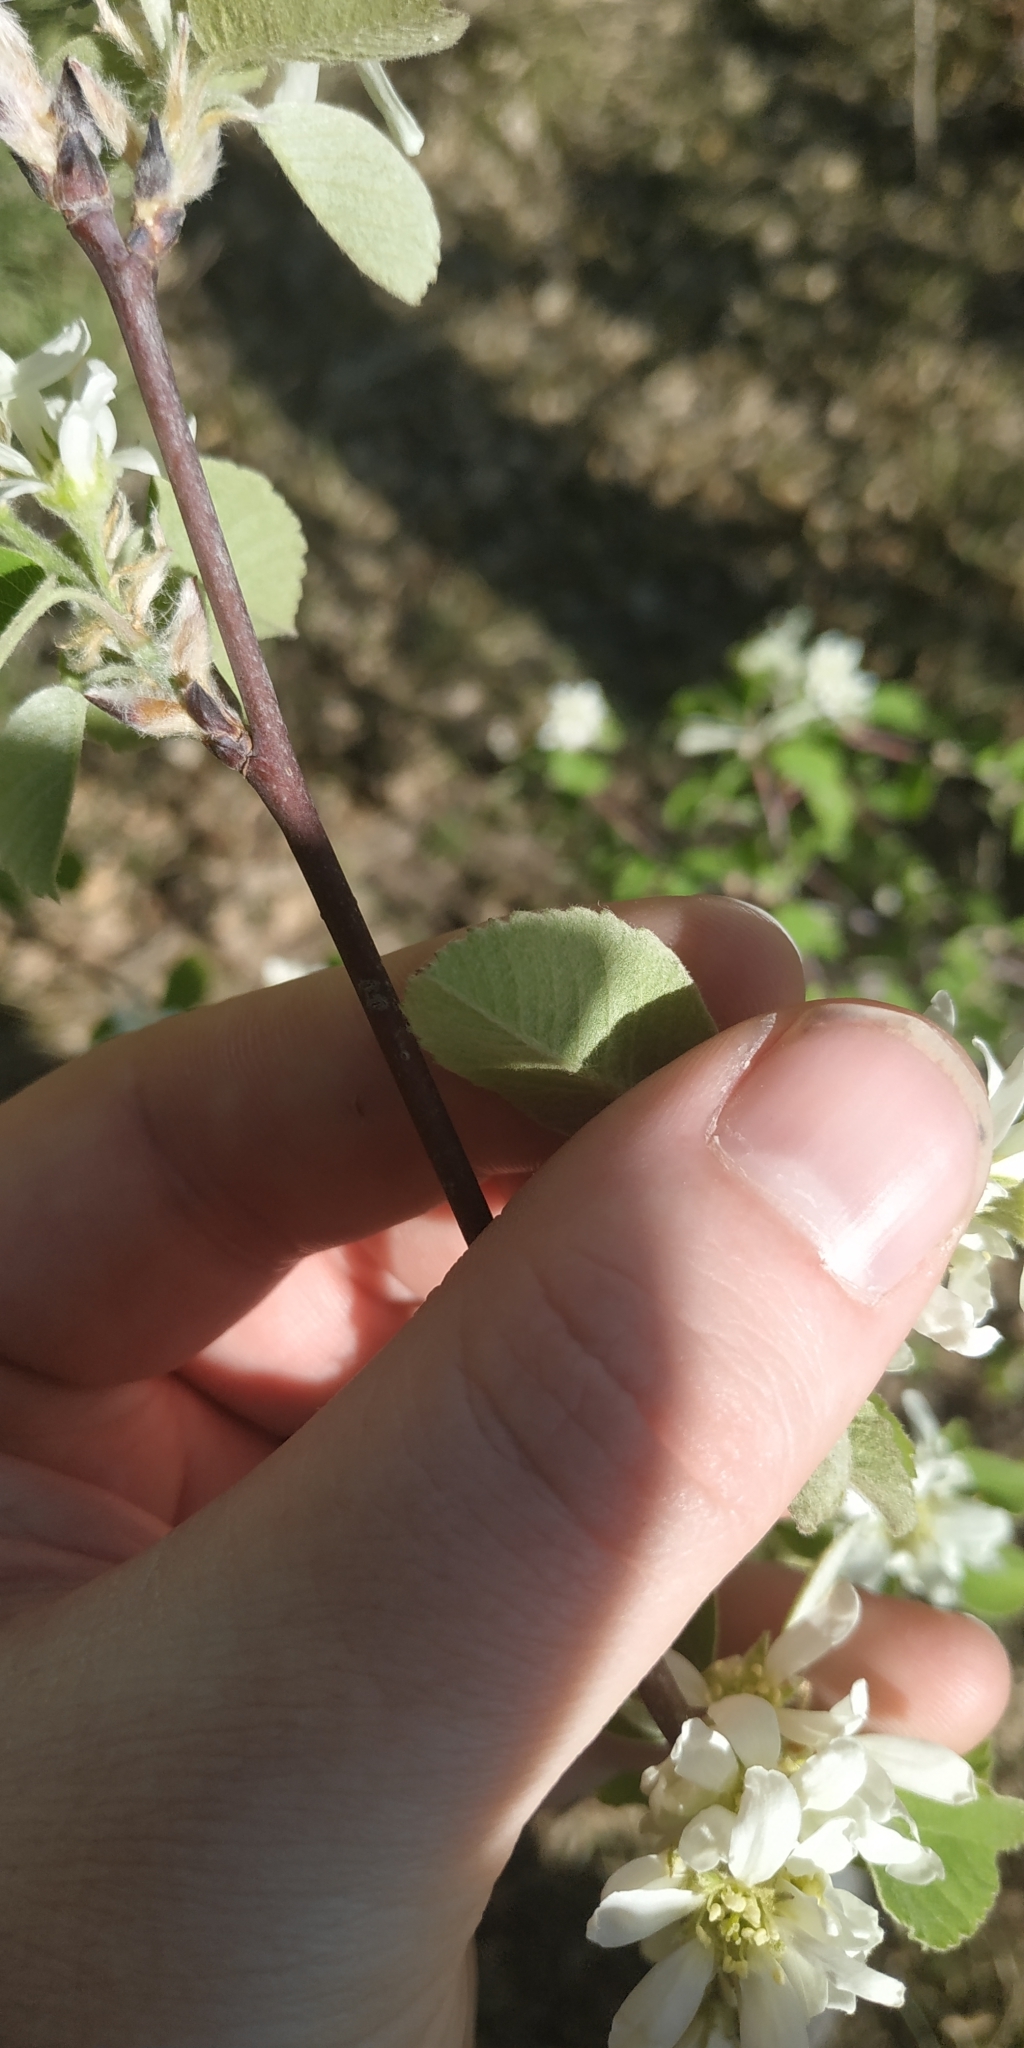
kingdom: Plantae
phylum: Tracheophyta
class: Magnoliopsida
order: Rosales
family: Rosaceae
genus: Amelanchier
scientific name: Amelanchier alnifolia
